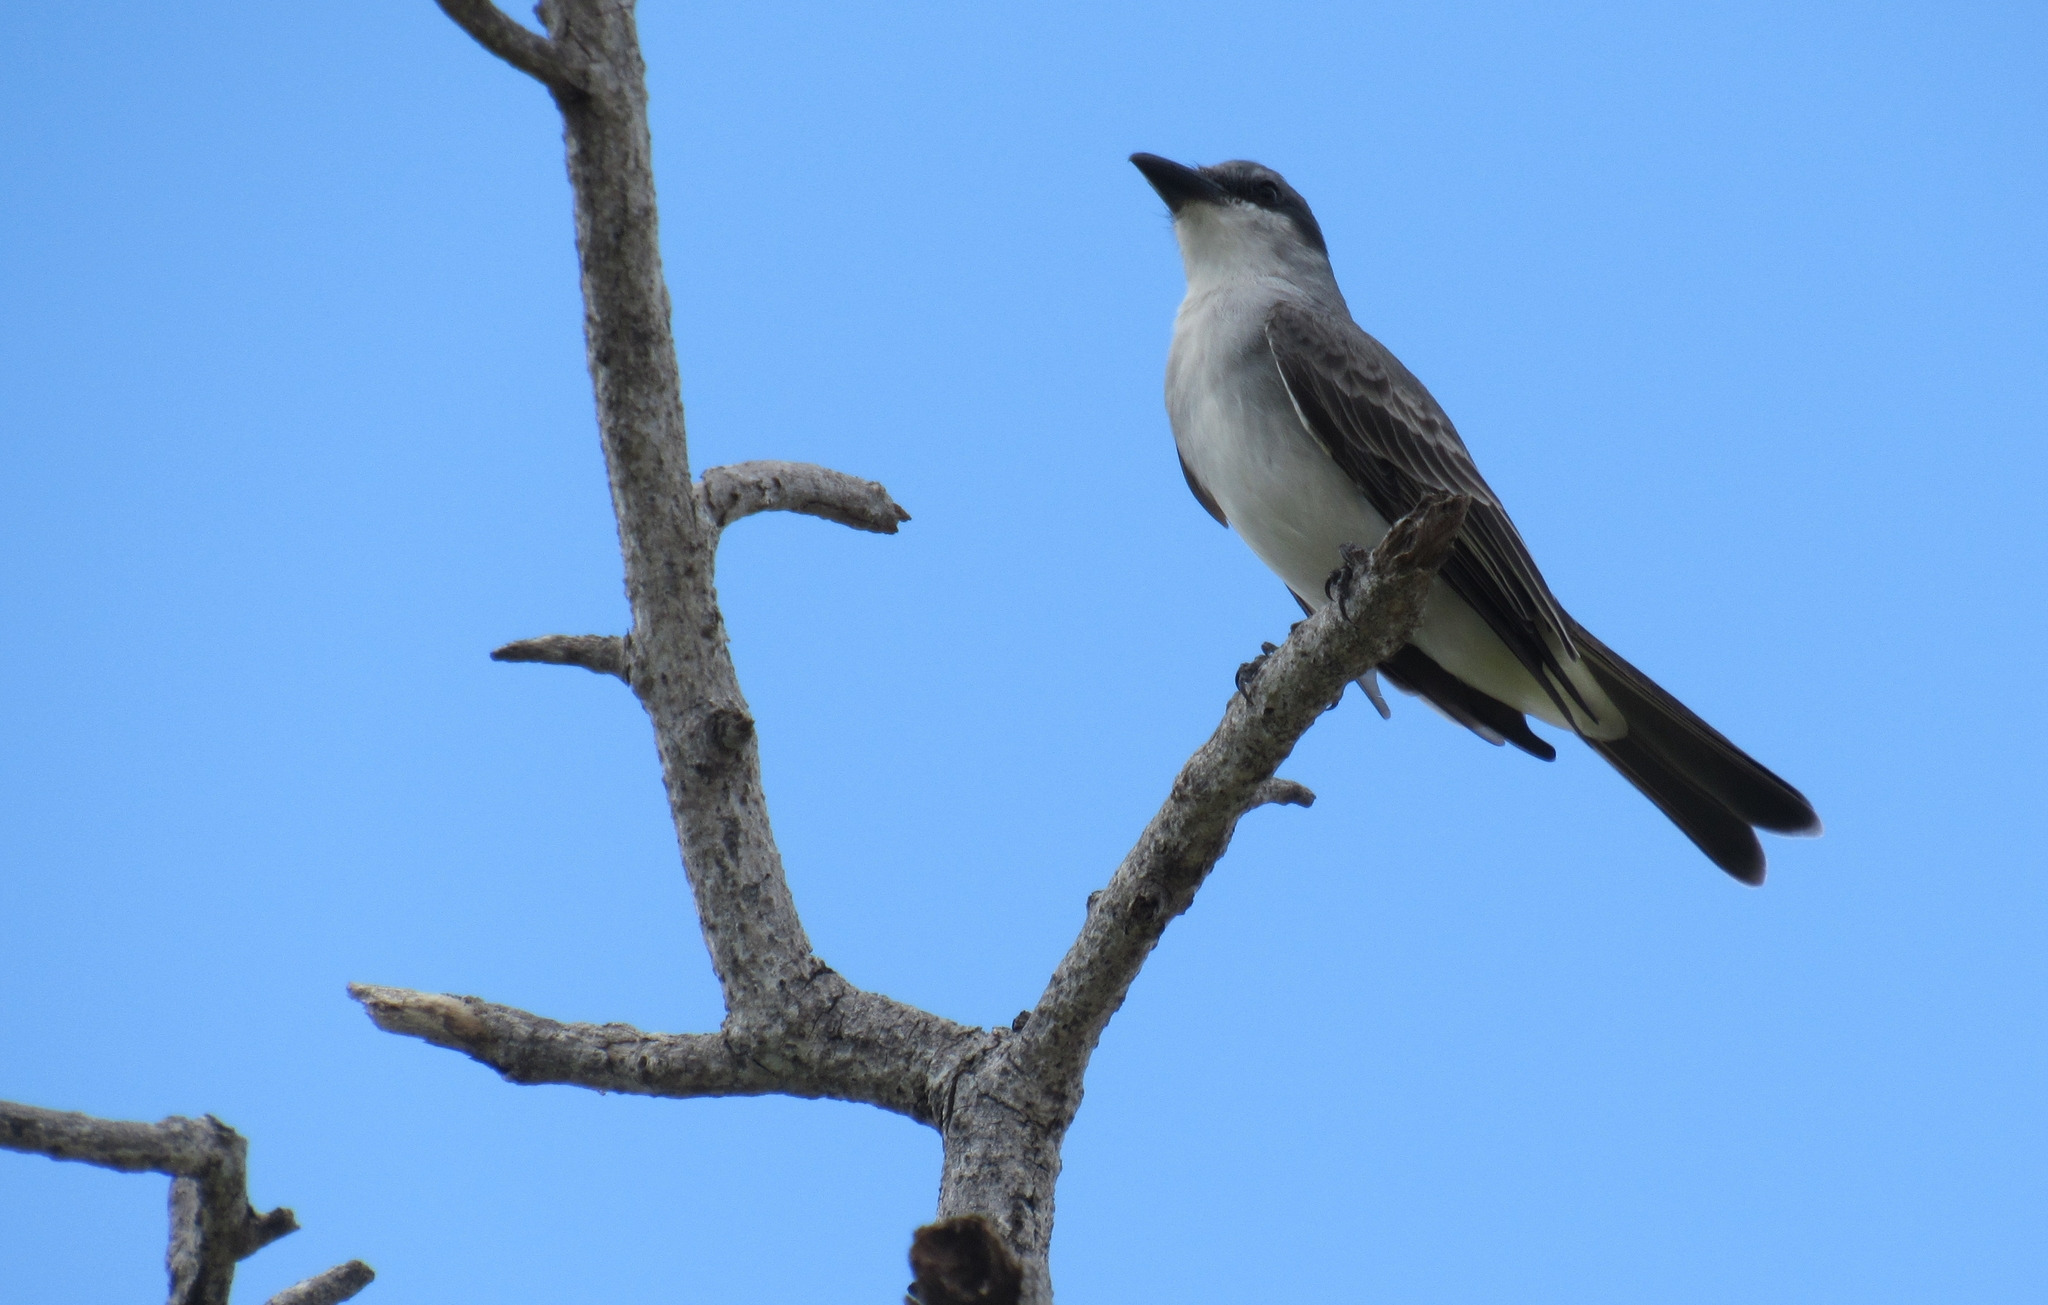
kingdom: Animalia
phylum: Chordata
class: Aves
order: Passeriformes
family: Tyrannidae
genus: Tyrannus
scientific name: Tyrannus dominicensis
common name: Gray kingbird
